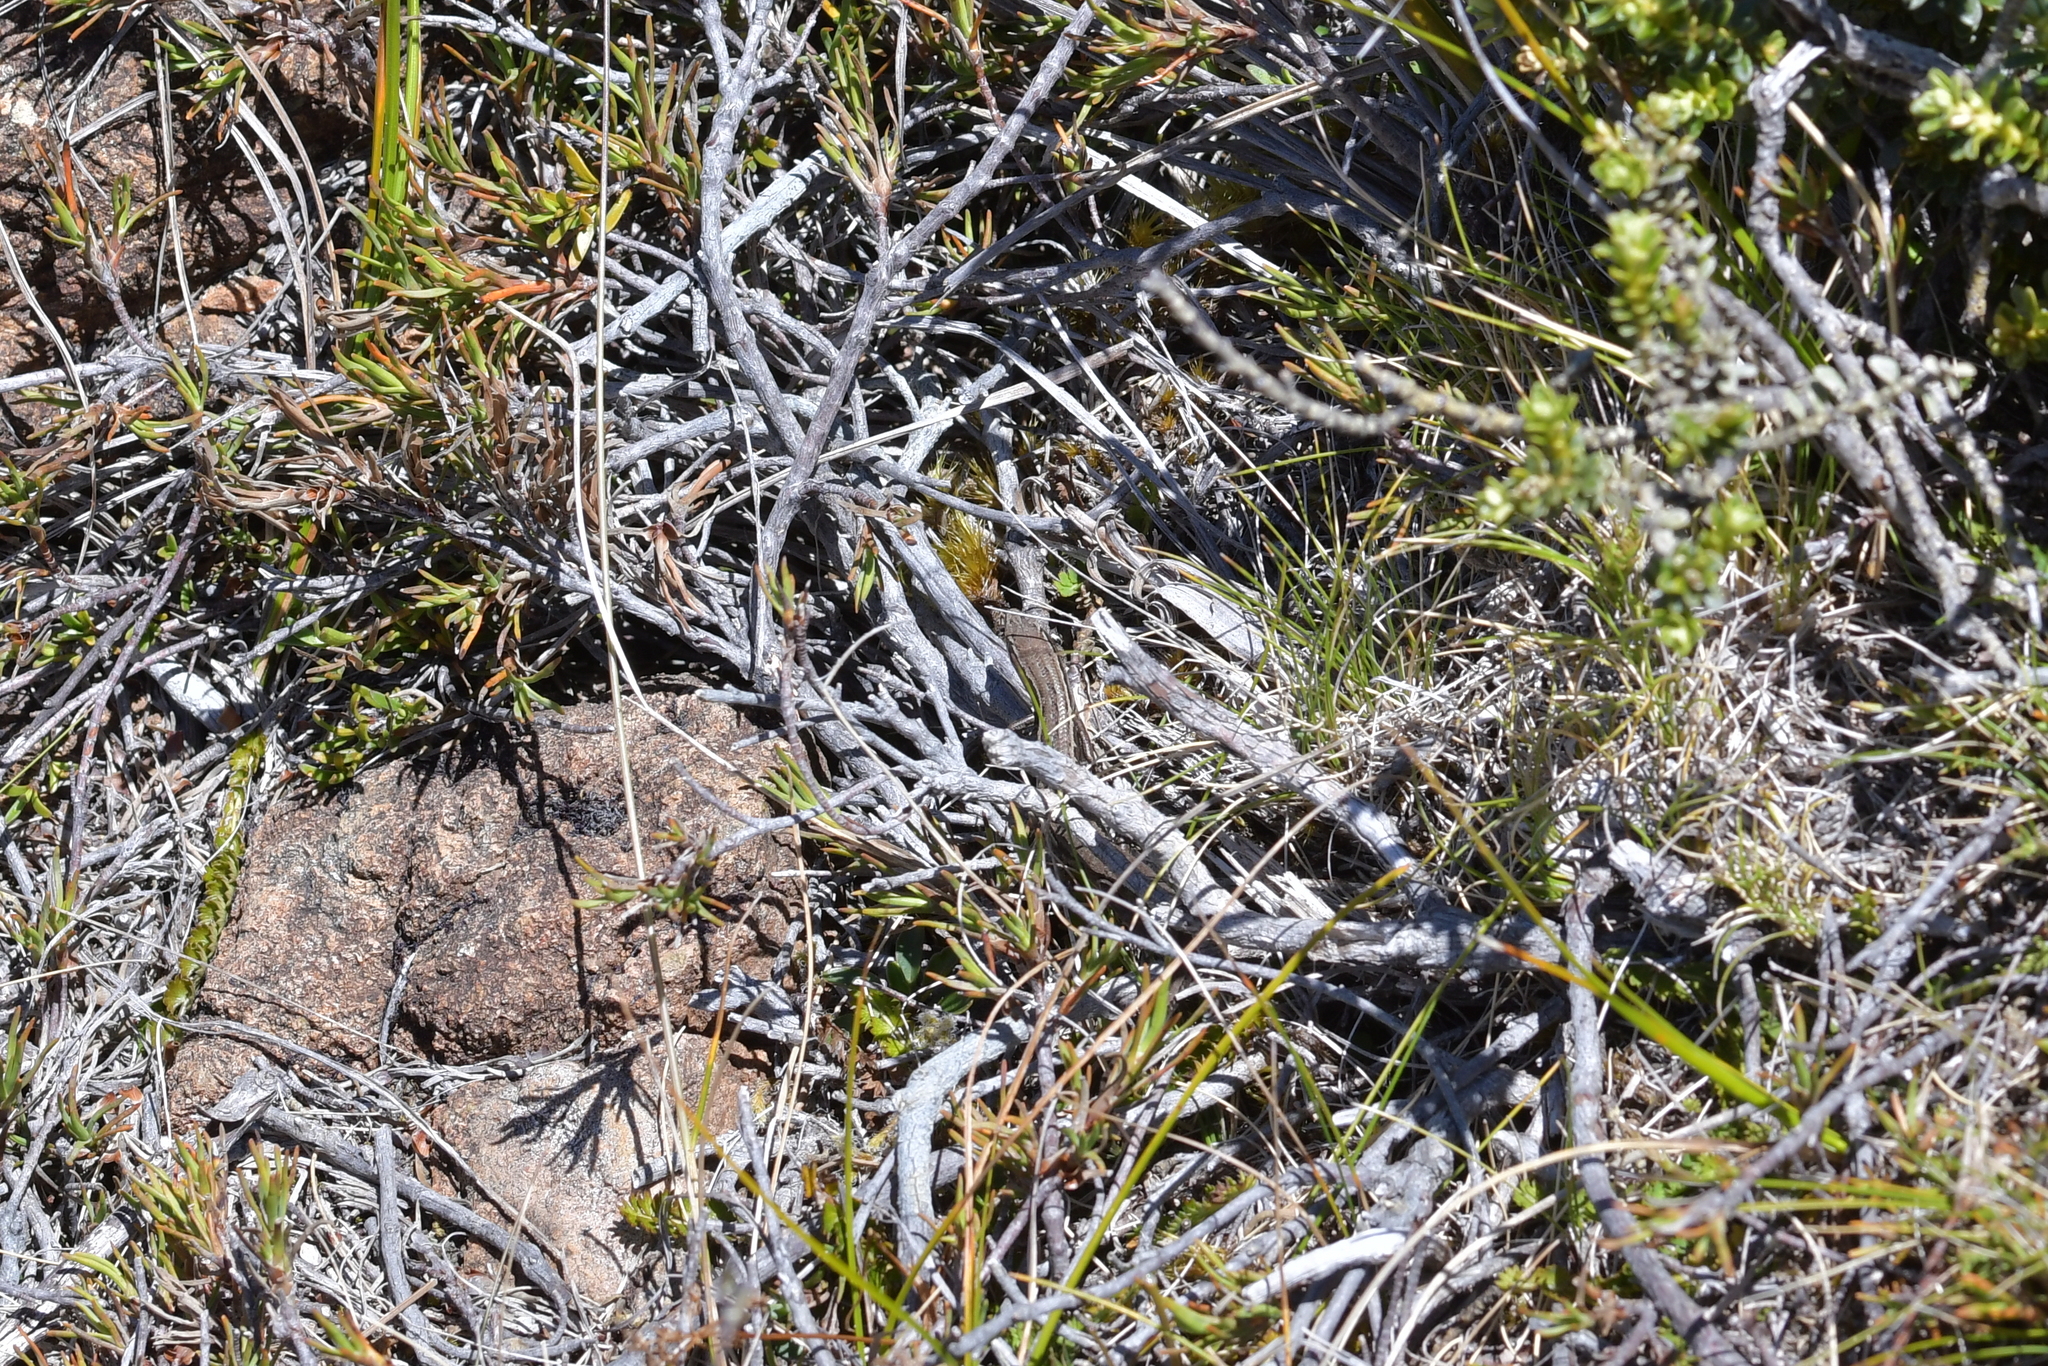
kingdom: Animalia
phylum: Chordata
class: Squamata
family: Scincidae
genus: Oligosoma
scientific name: Oligosoma polychroma
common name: Common new zealand skink
